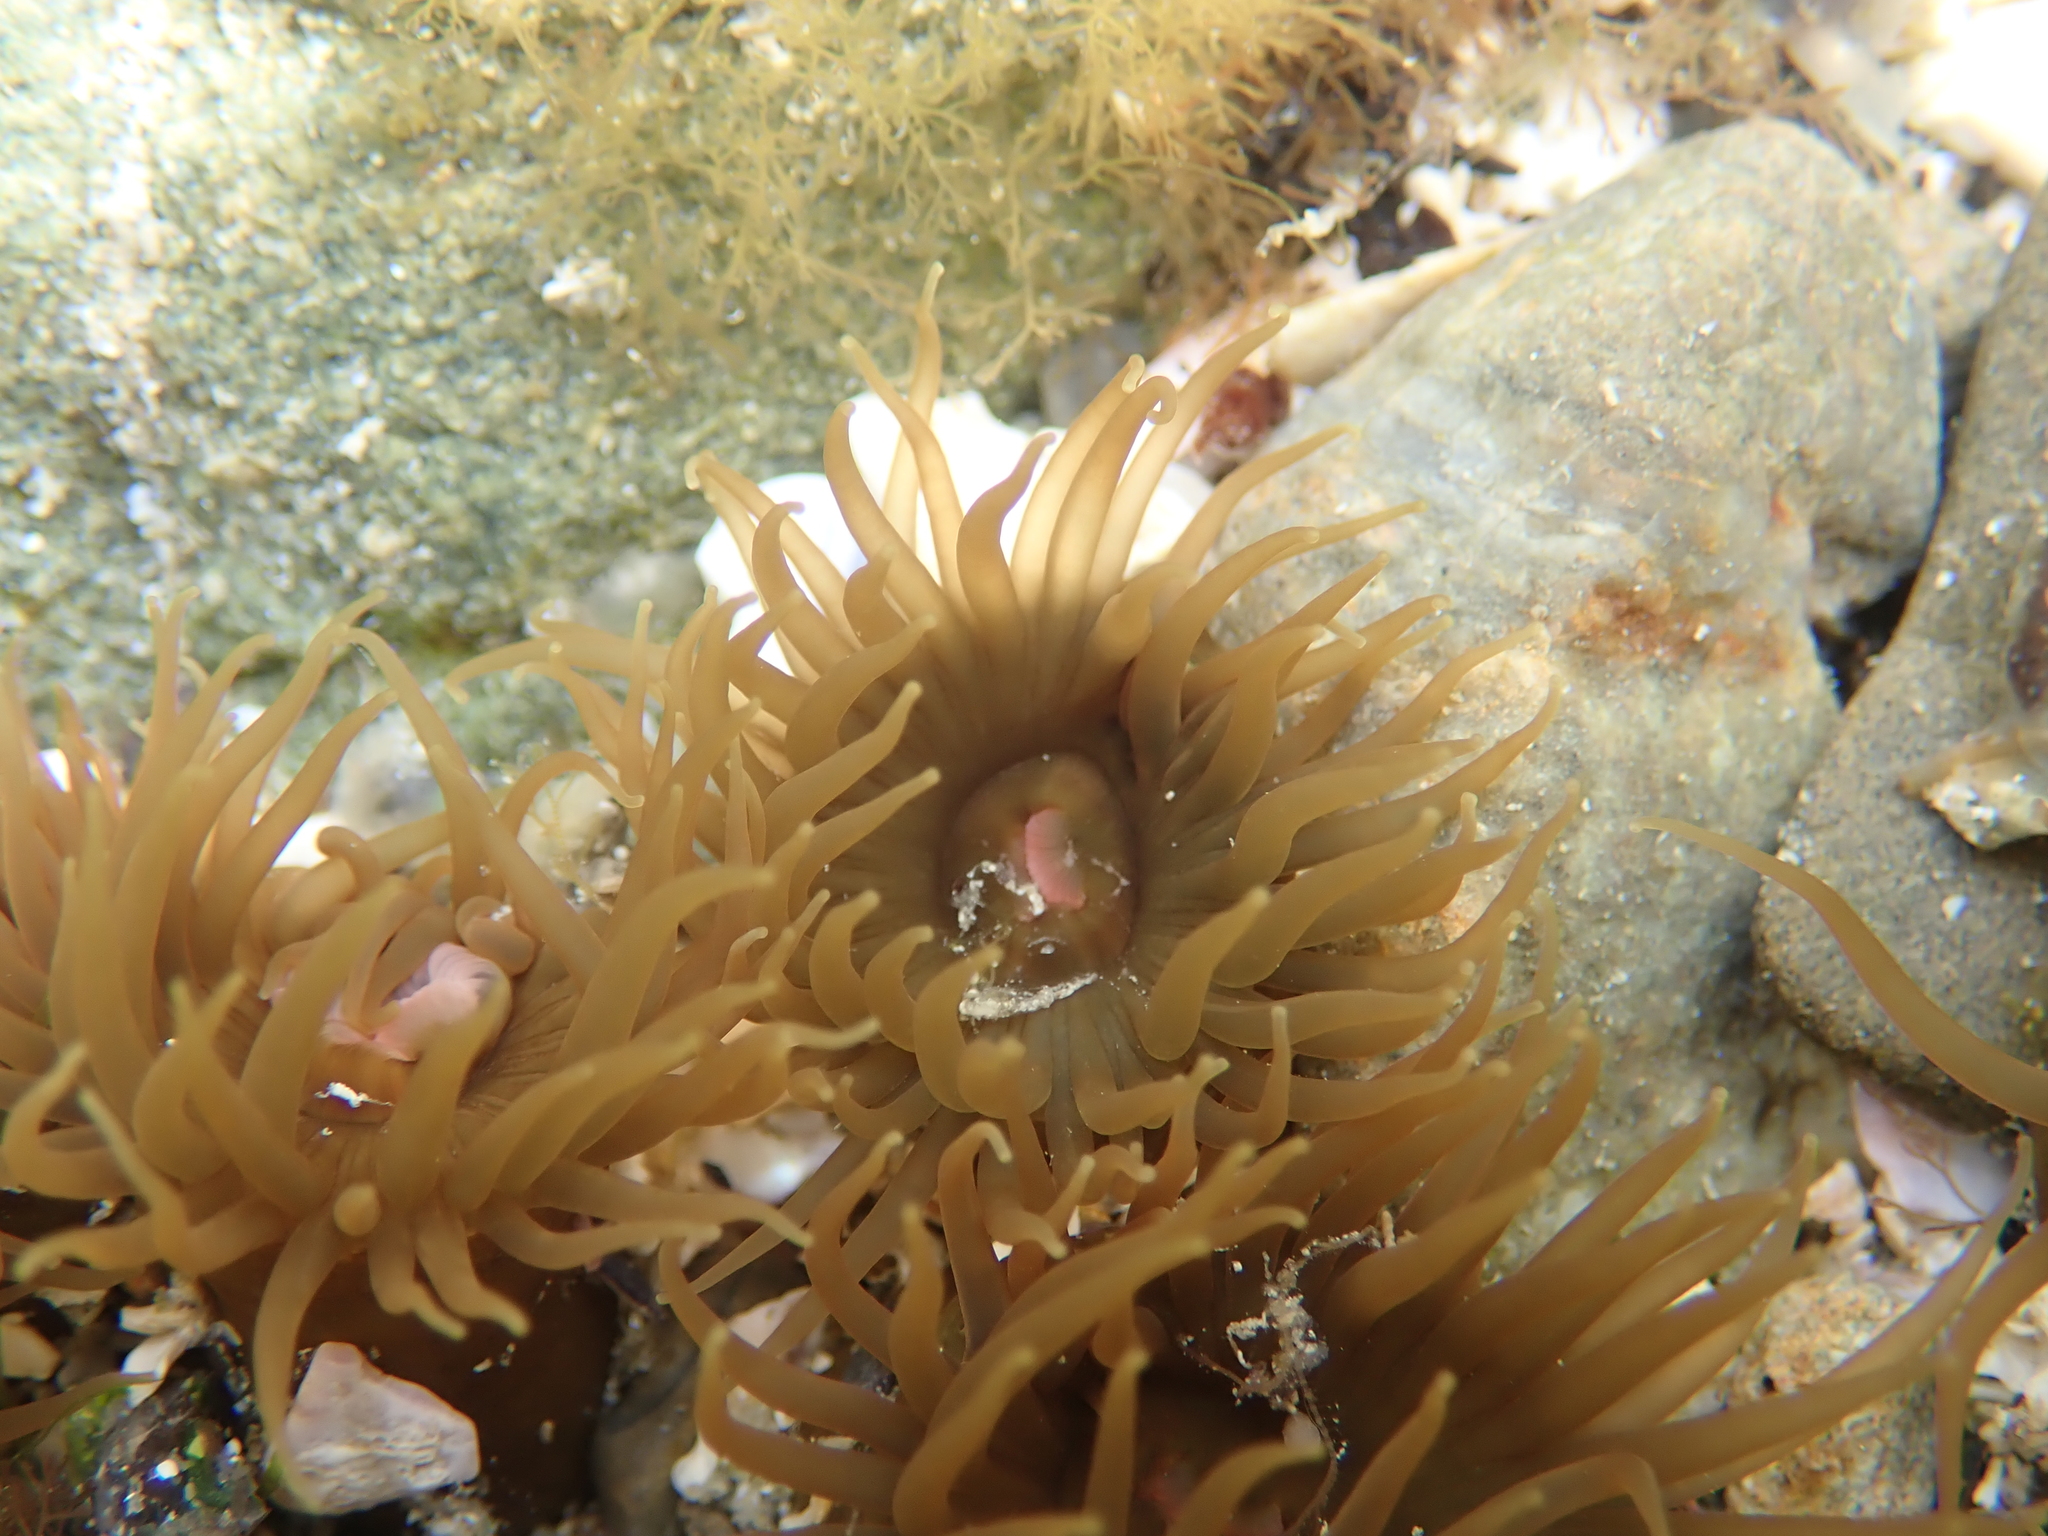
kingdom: Animalia
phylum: Cnidaria
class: Anthozoa
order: Actiniaria
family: Actiniidae
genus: Isactinia
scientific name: Isactinia olivacea
